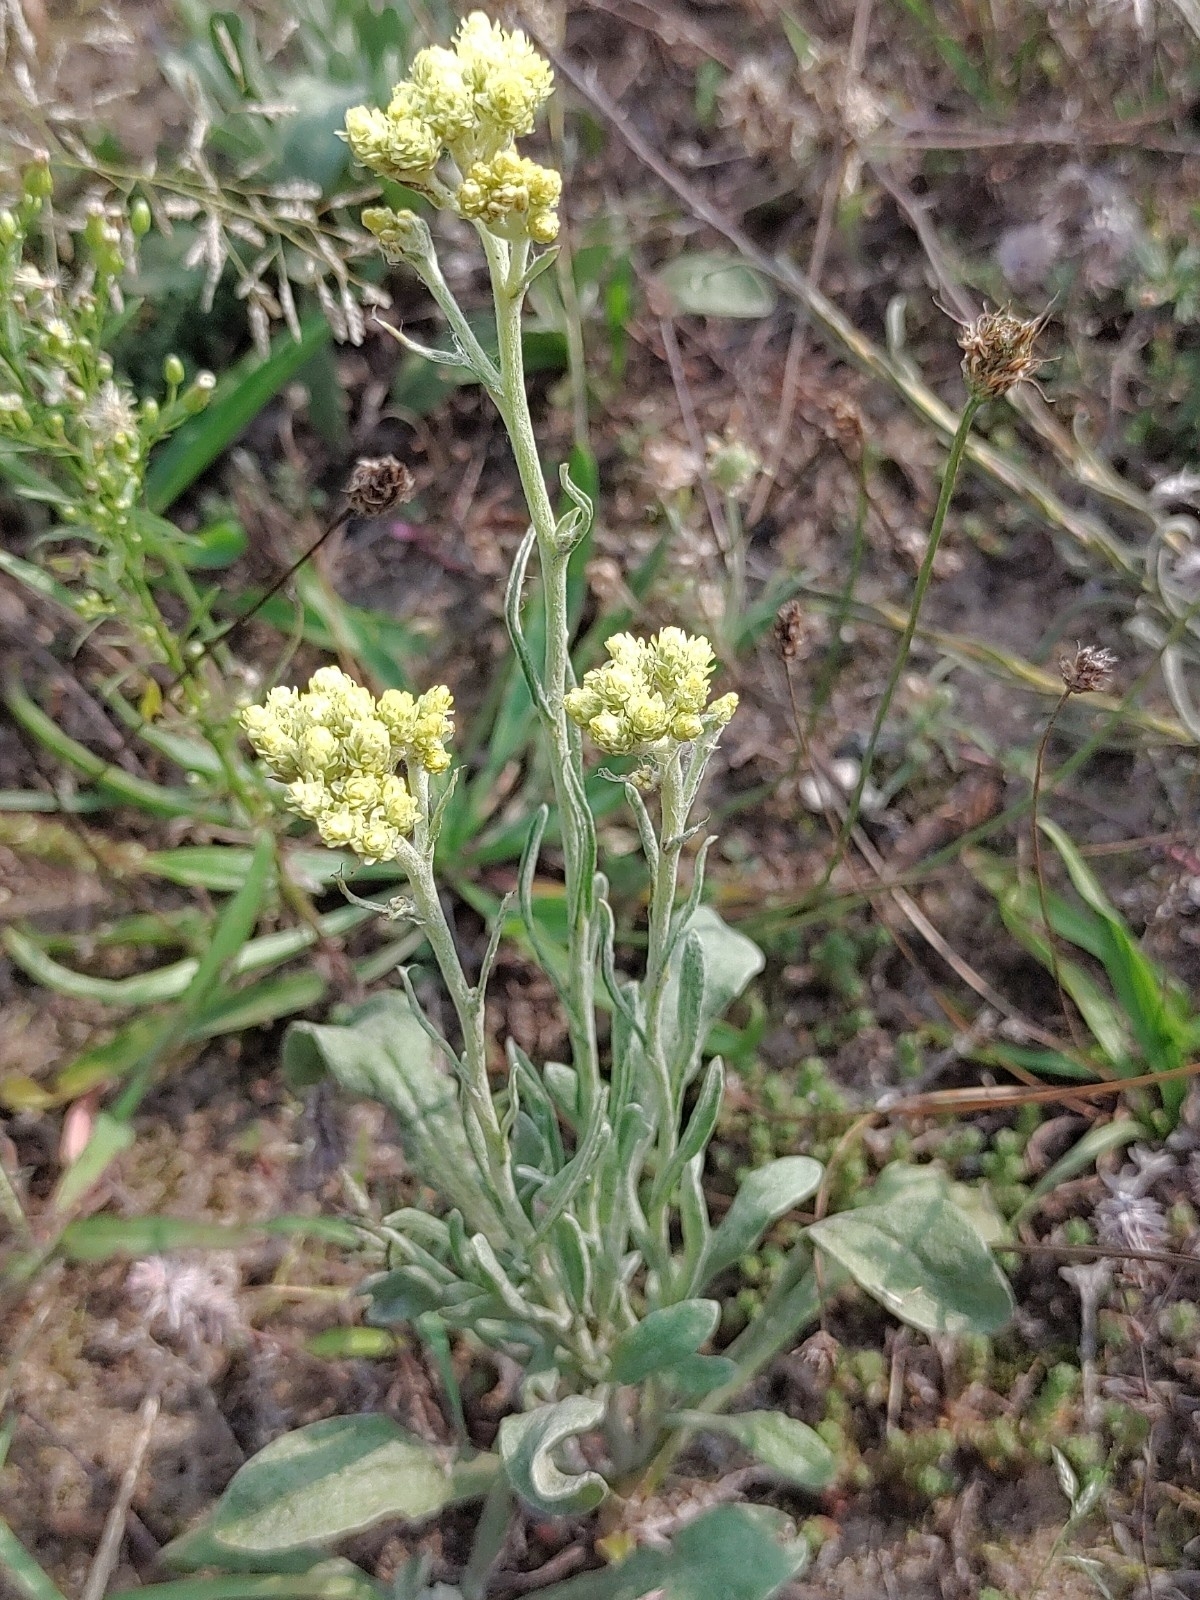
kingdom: Plantae
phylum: Tracheophyta
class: Magnoliopsida
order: Asterales
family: Asteraceae
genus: Helichrysum
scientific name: Helichrysum arenarium
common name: Strawflower
